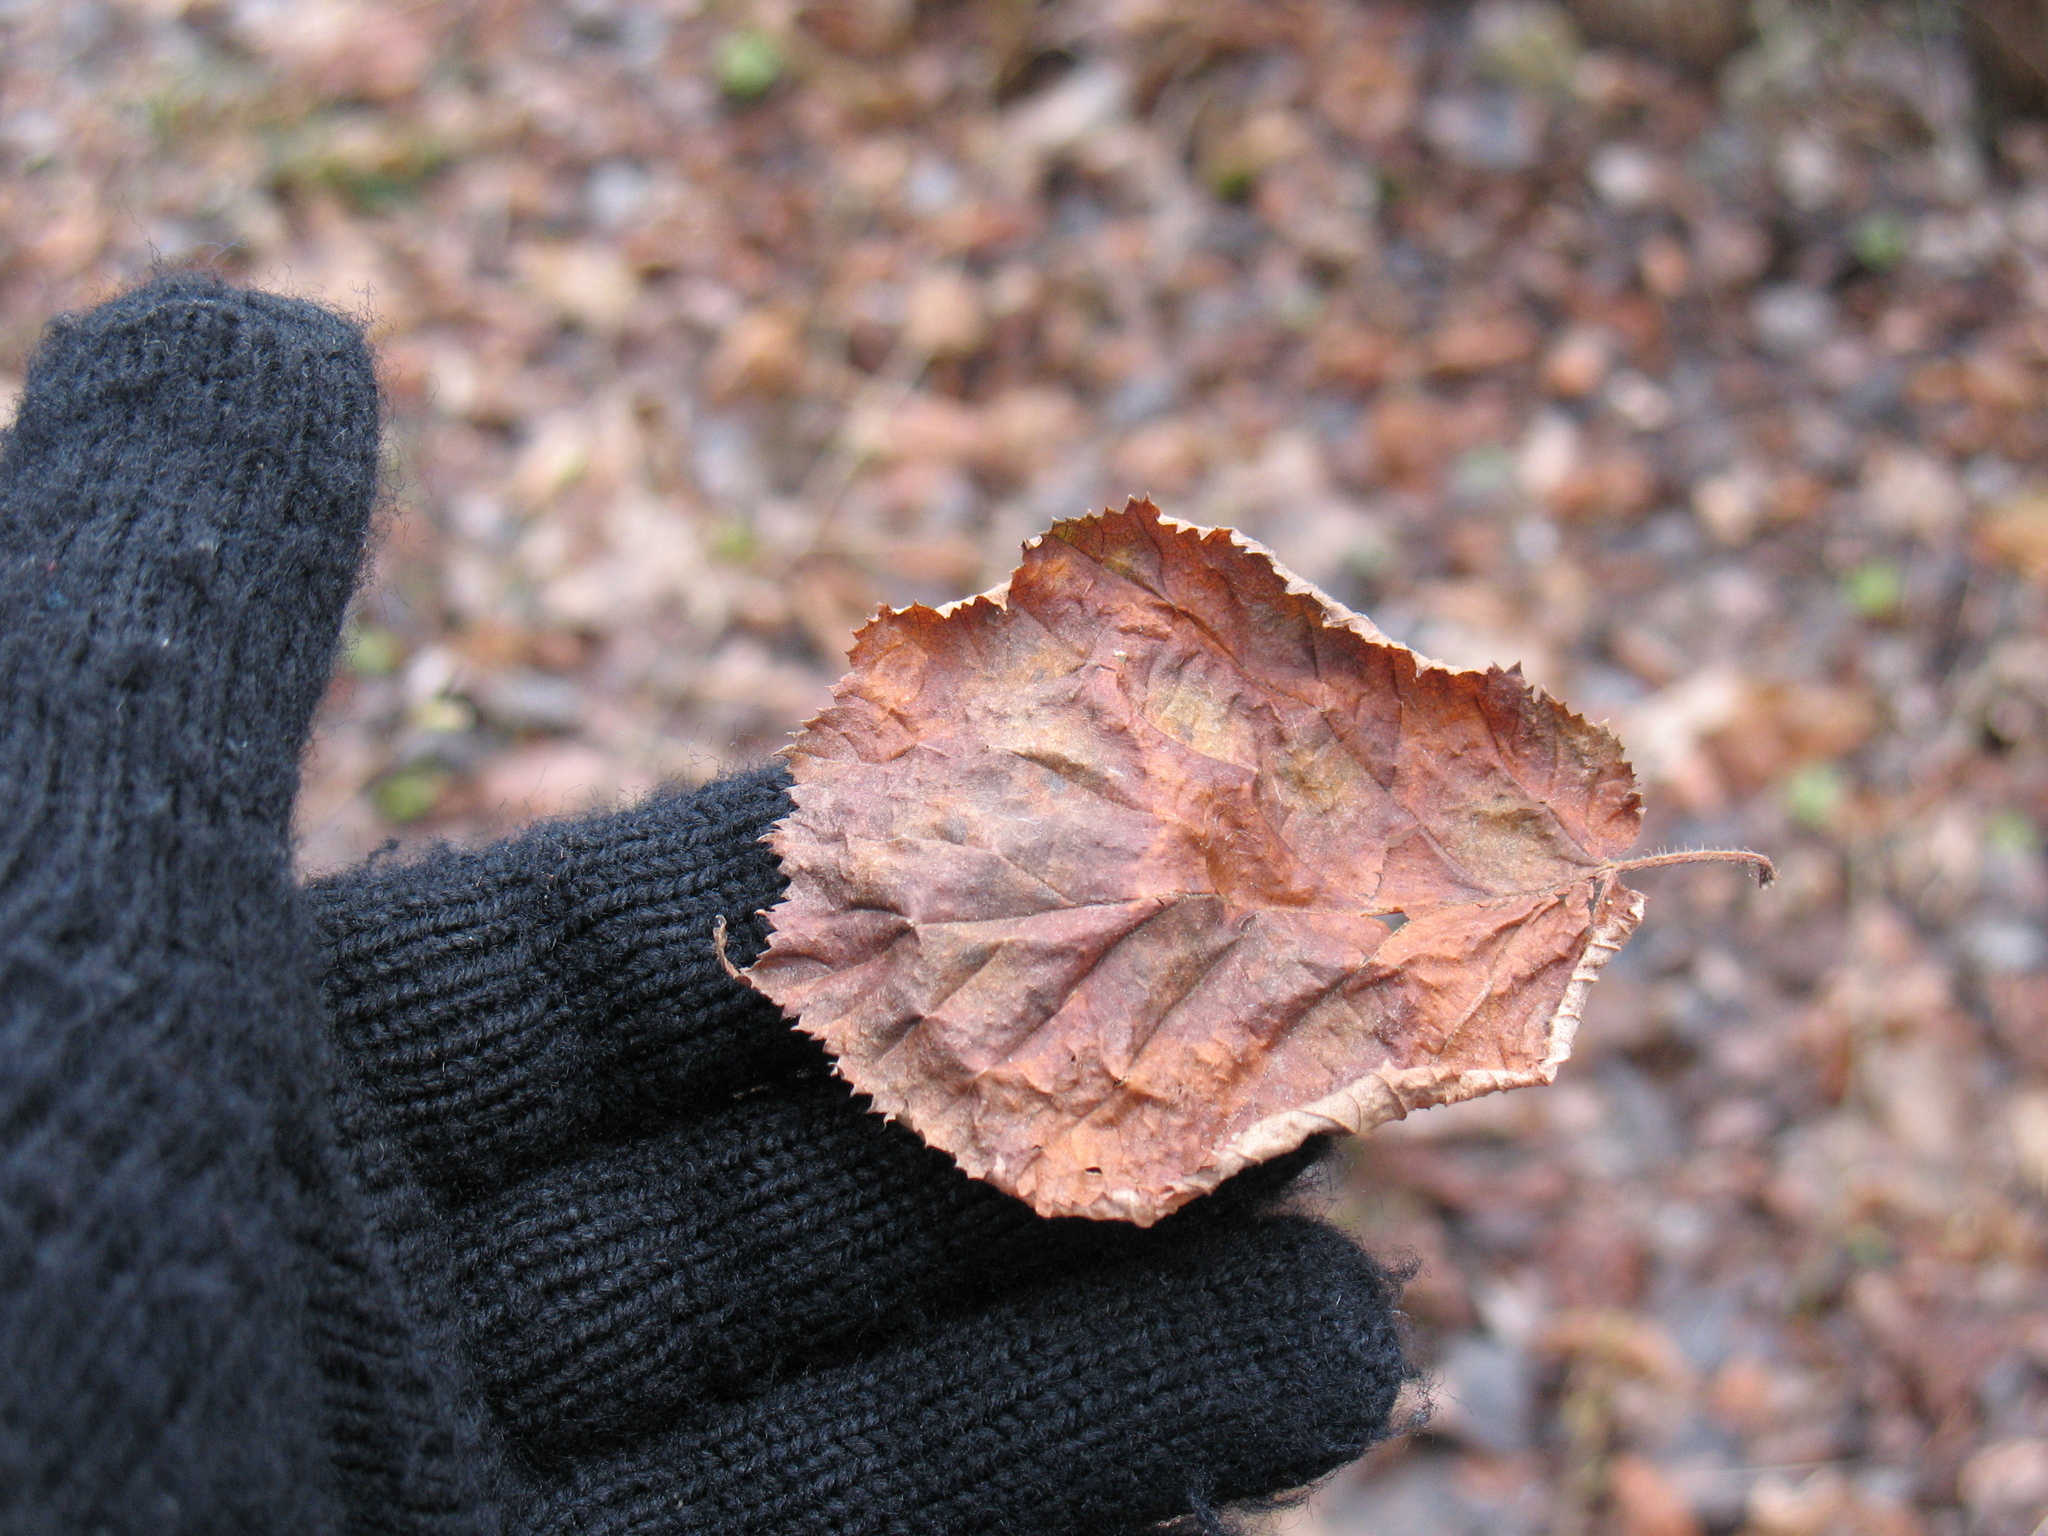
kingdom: Plantae
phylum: Tracheophyta
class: Magnoliopsida
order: Fagales
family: Betulaceae
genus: Corylus
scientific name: Corylus avellana
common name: European hazel
